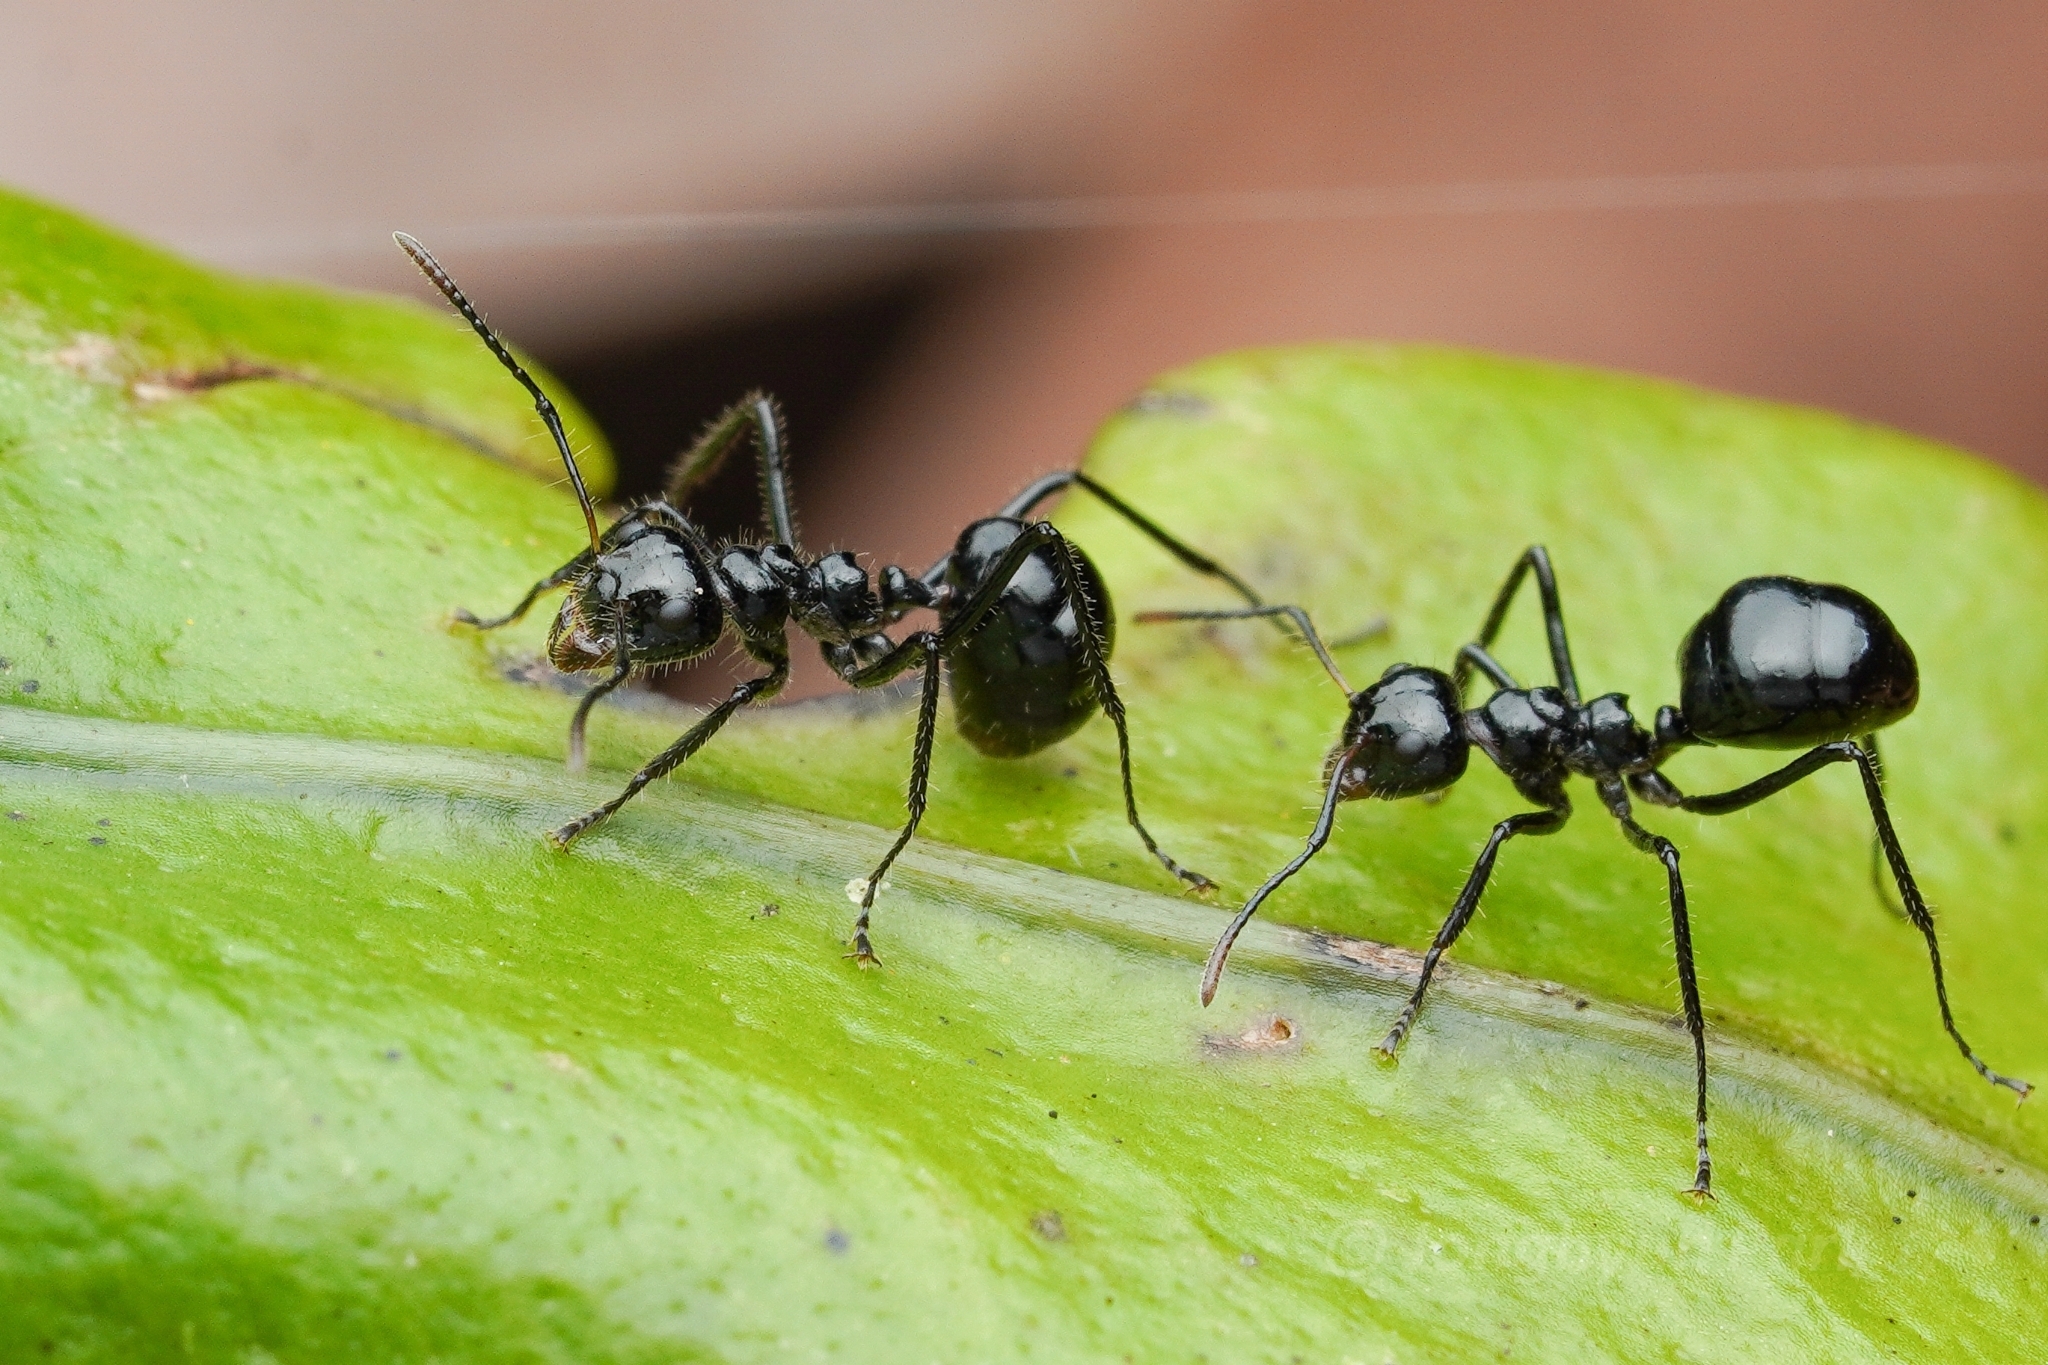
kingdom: Animalia
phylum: Arthropoda
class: Insecta
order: Hymenoptera
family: Formicidae
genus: Dolichoderus
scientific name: Dolichoderus sulcaticeps
